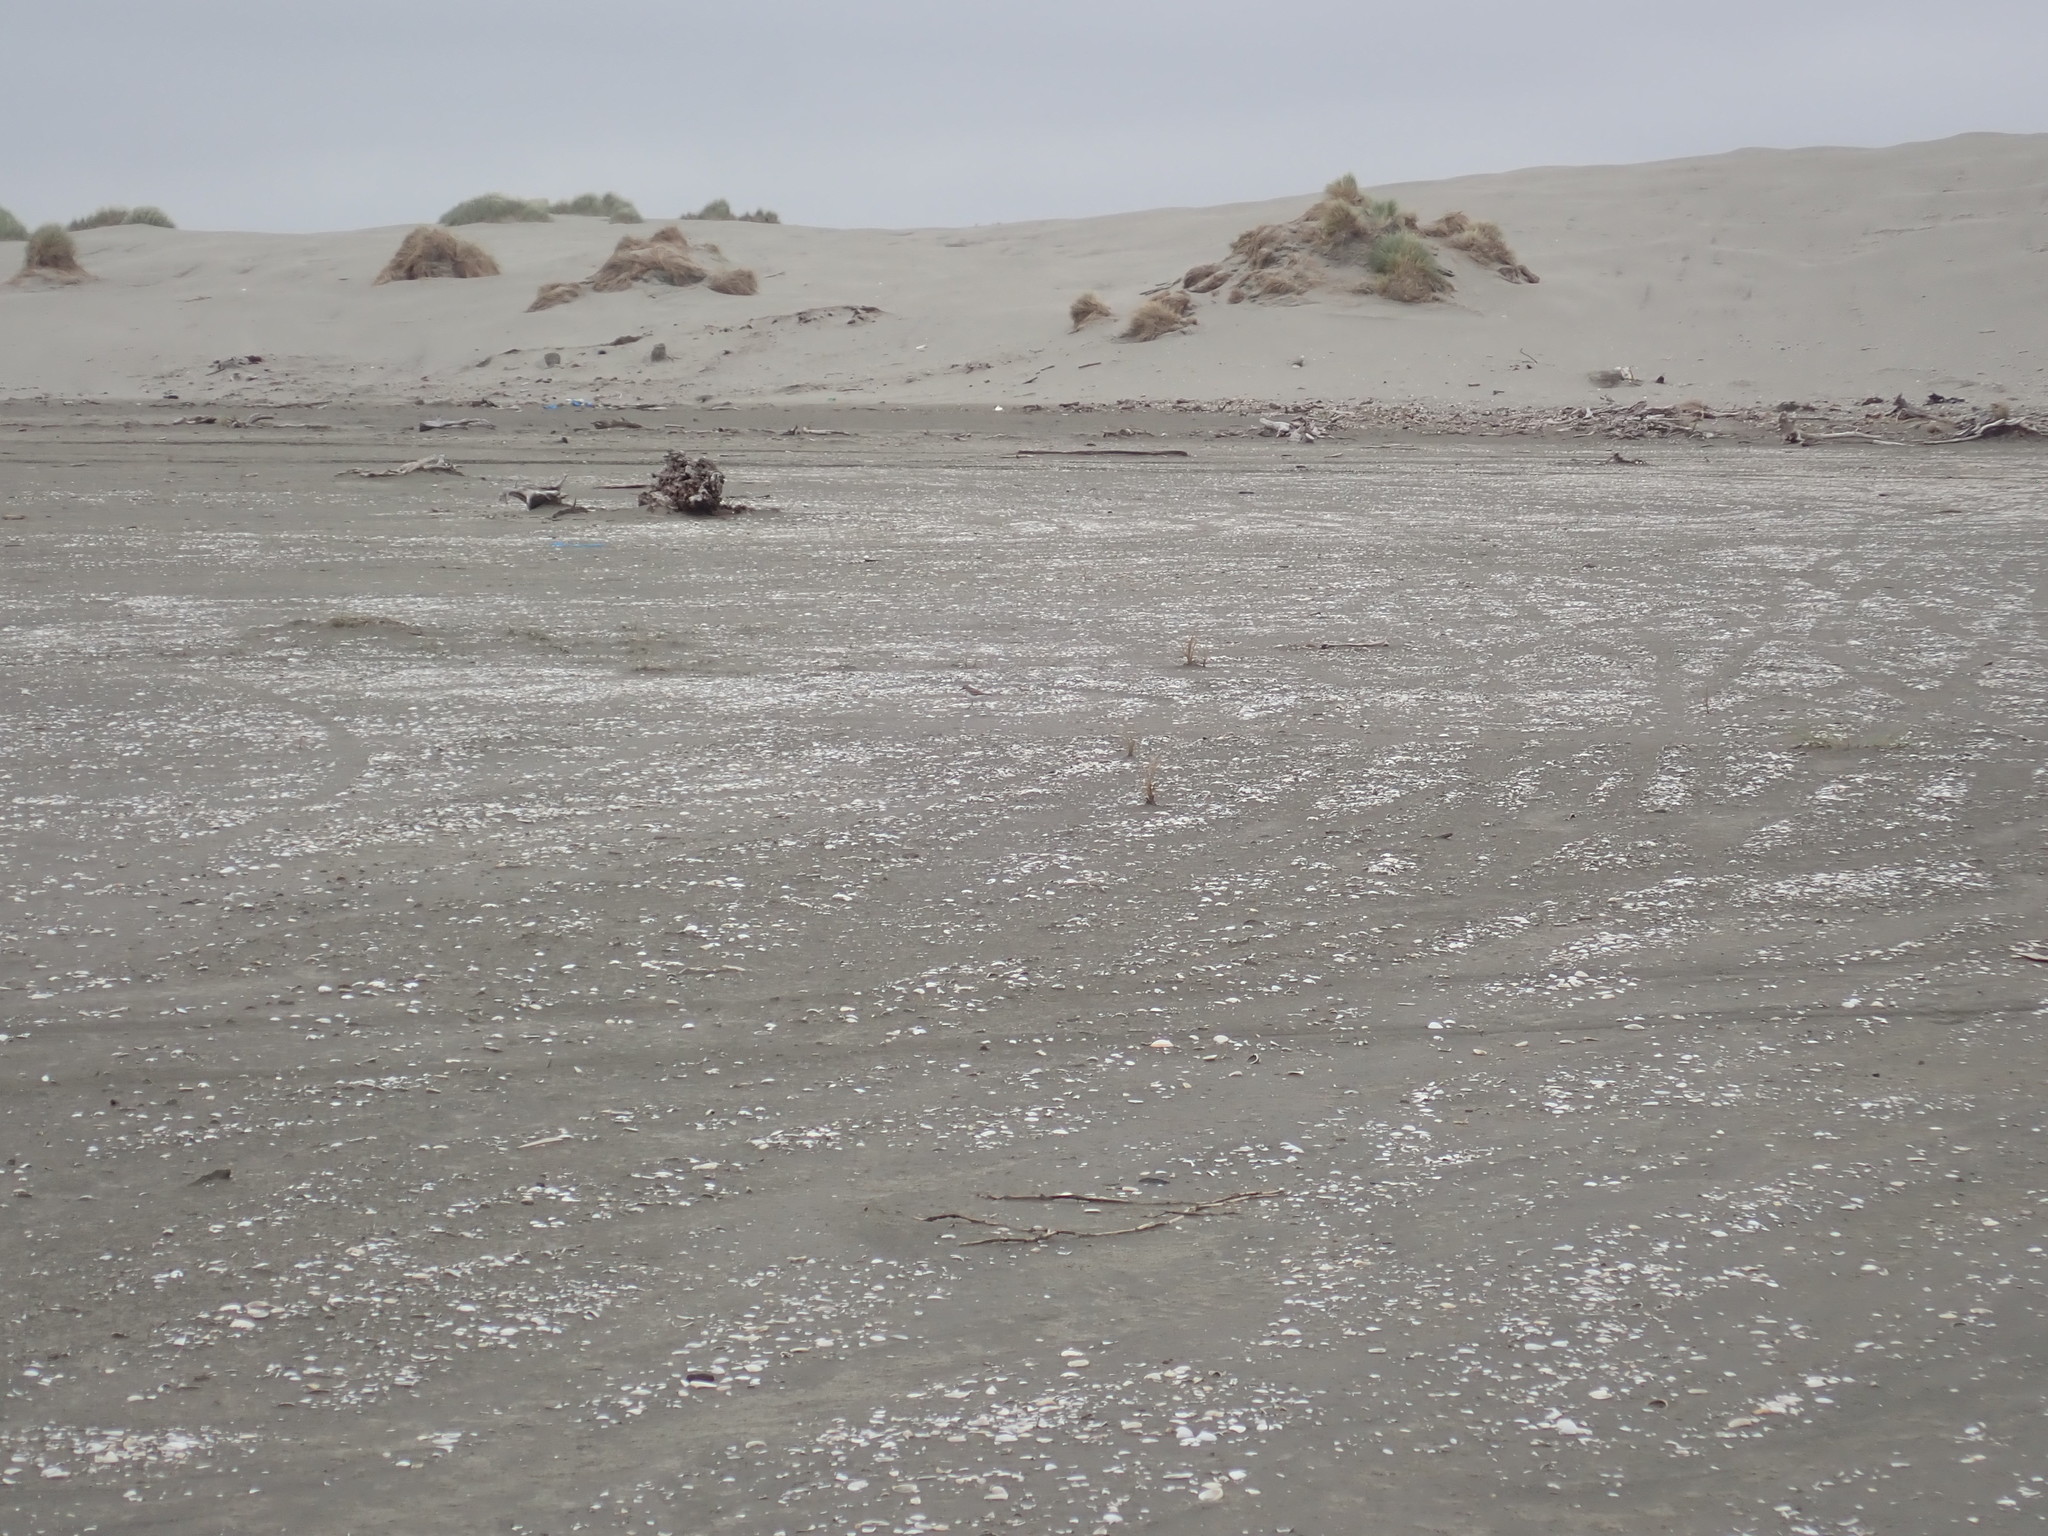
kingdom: Animalia
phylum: Chordata
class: Aves
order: Charadriiformes
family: Charadriidae
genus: Anarhynchus
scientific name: Anarhynchus
